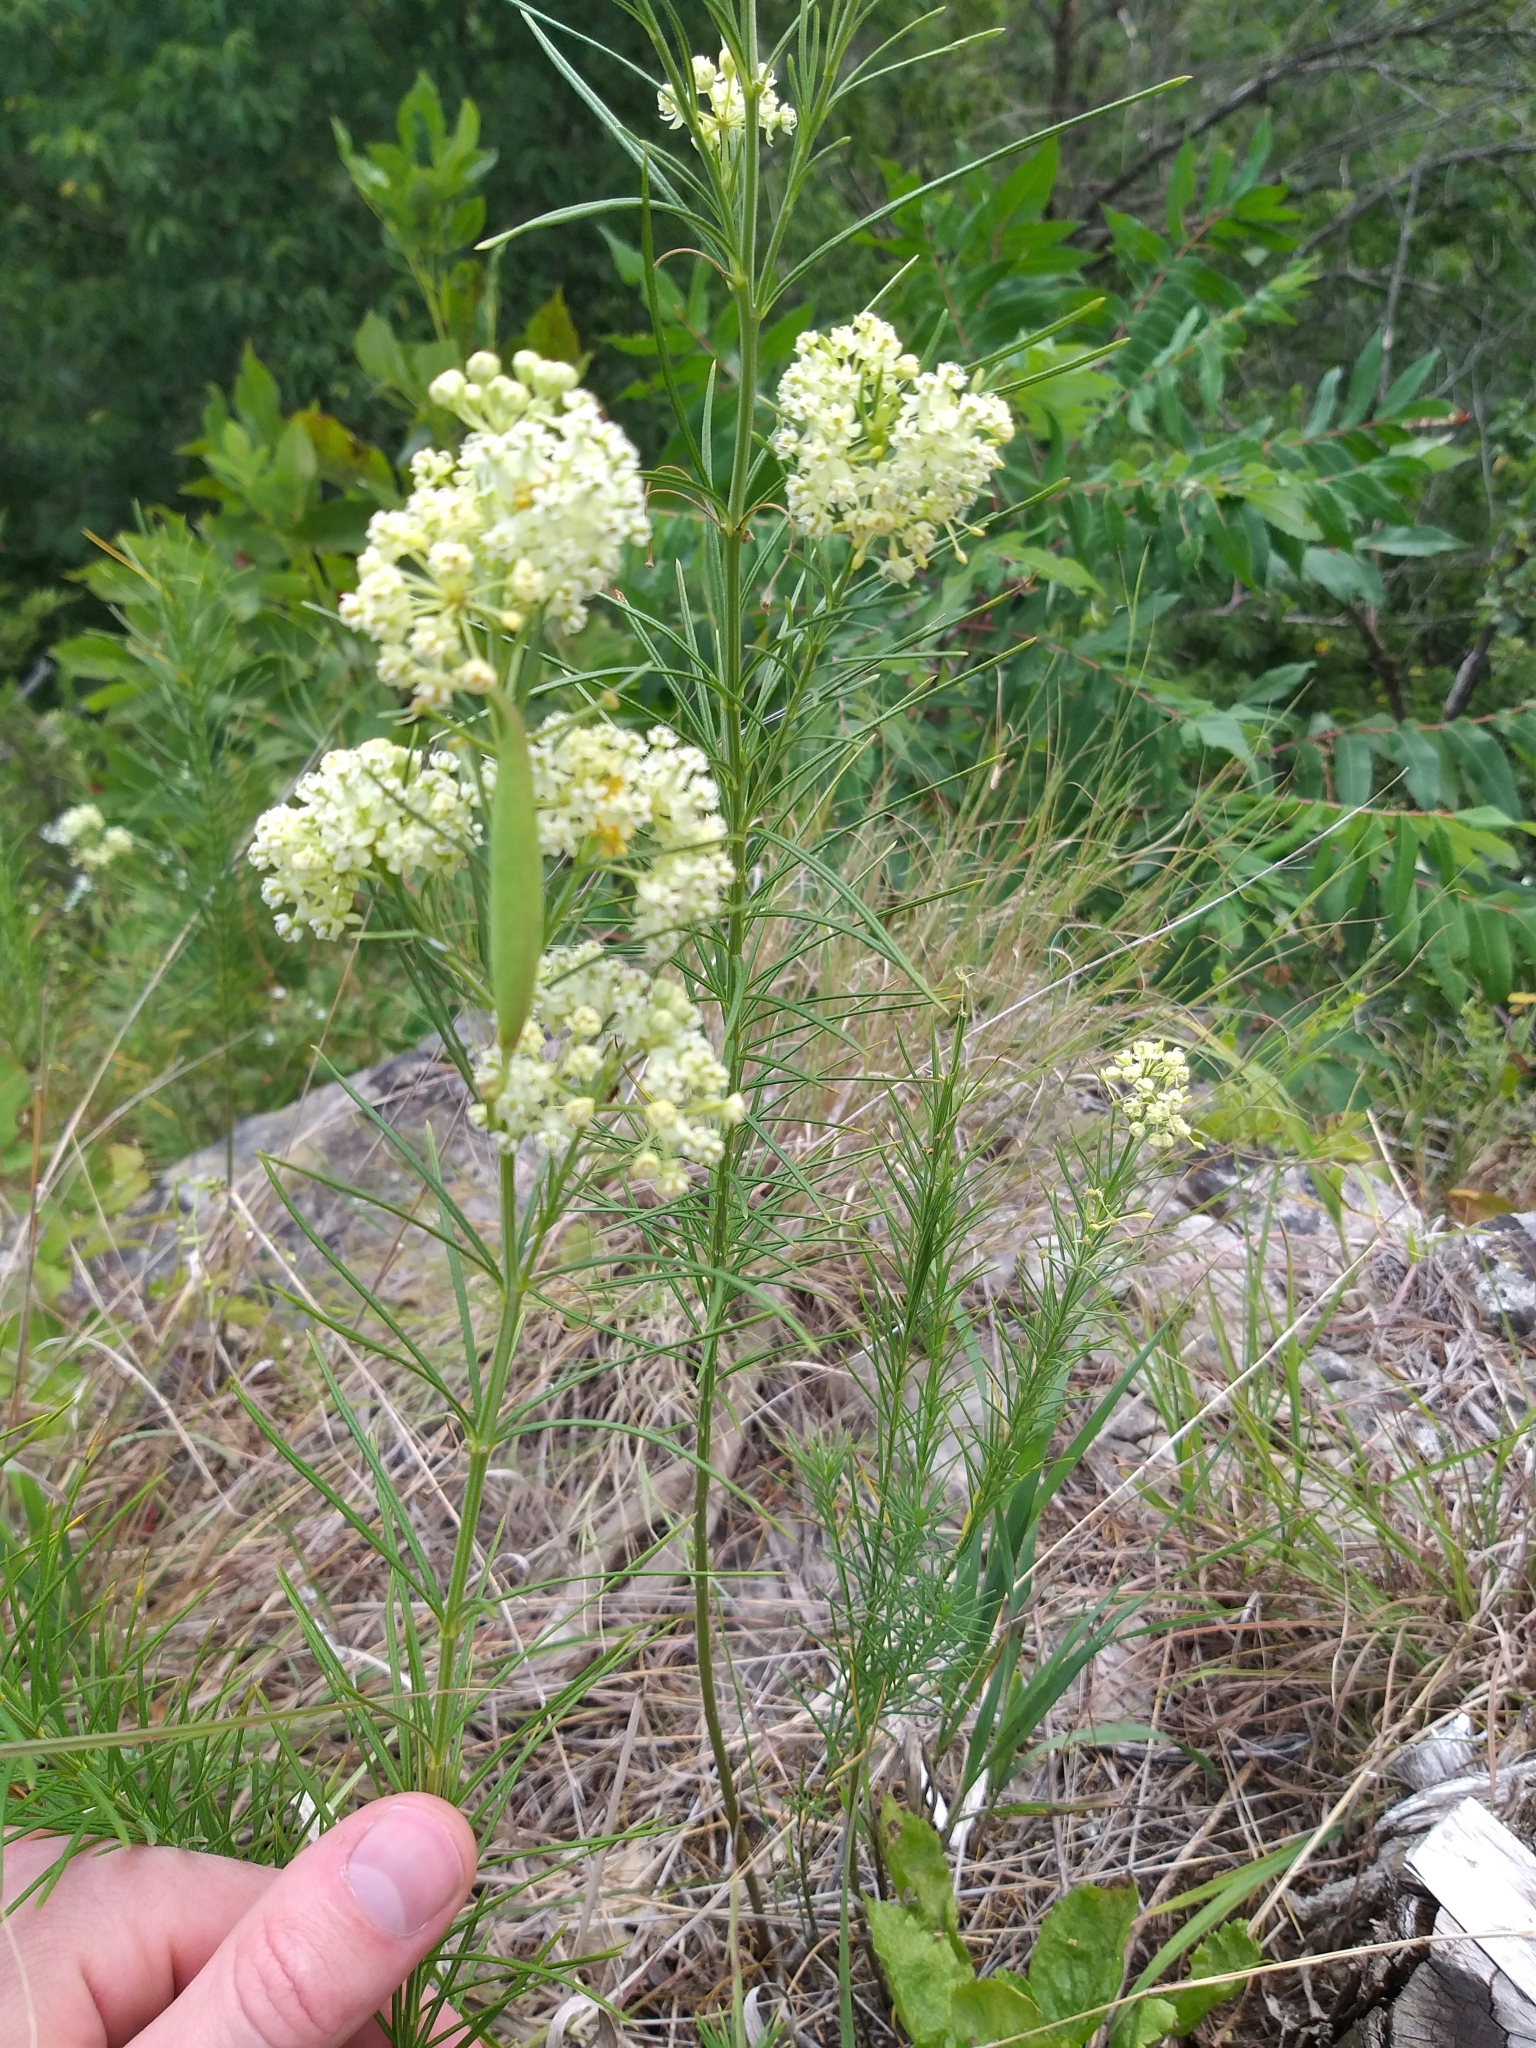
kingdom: Plantae
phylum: Tracheophyta
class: Magnoliopsida
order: Gentianales
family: Apocynaceae
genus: Asclepias
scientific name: Asclepias verticillata
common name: Eastern whorled milkweed
